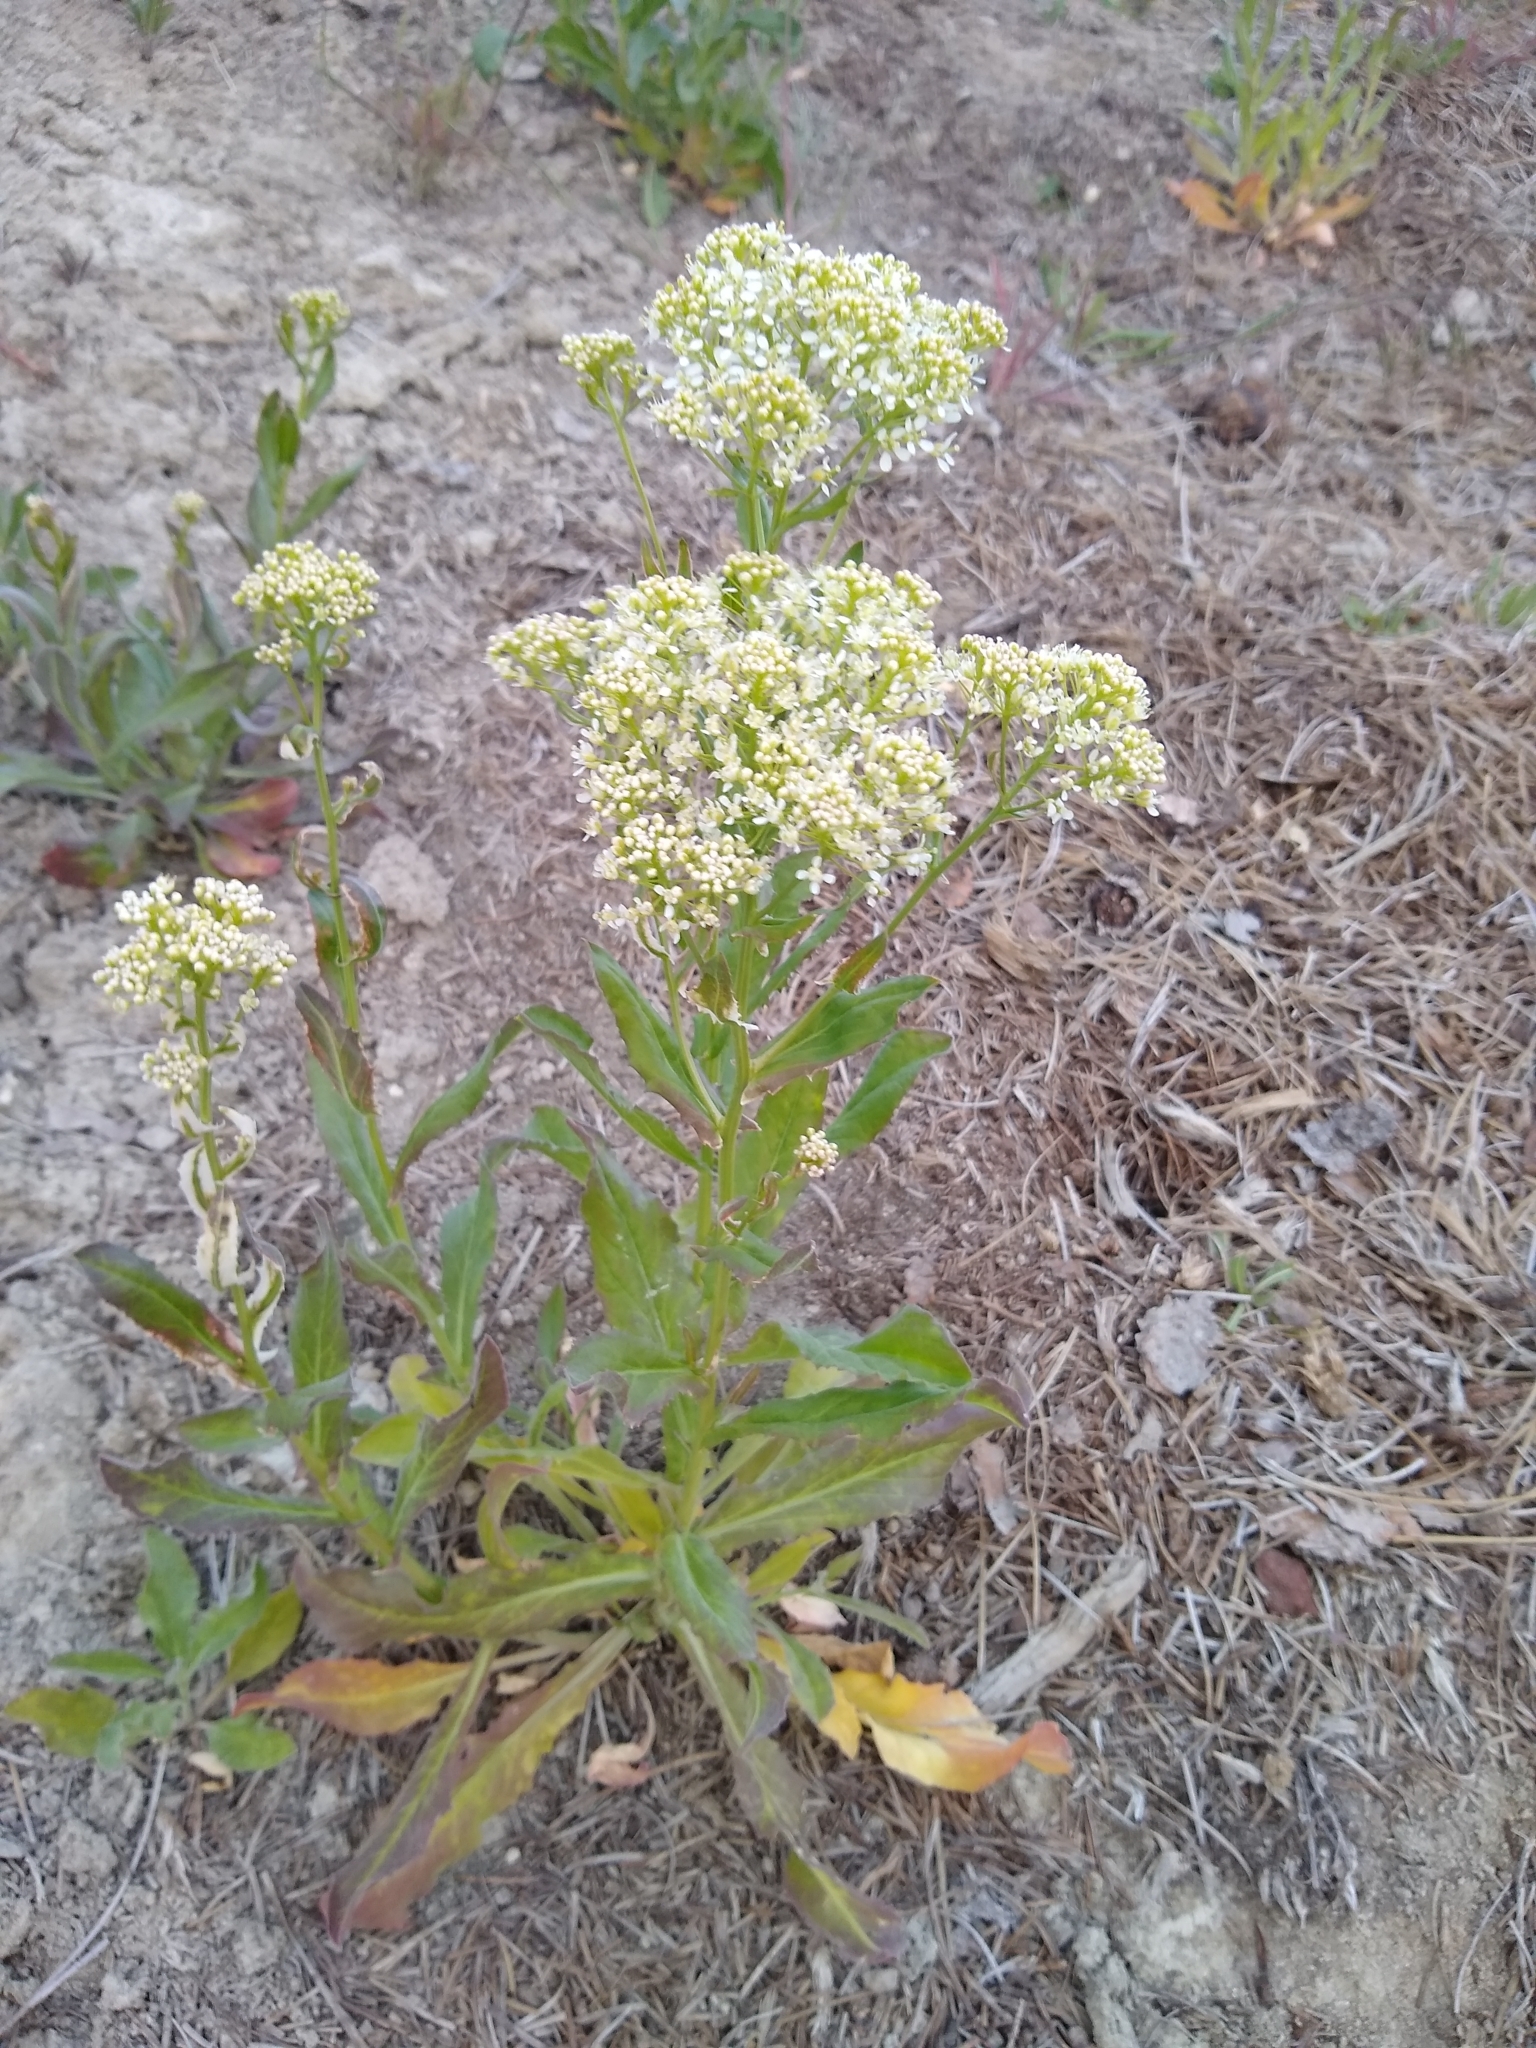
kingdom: Plantae
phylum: Tracheophyta
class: Magnoliopsida
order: Brassicales
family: Brassicaceae
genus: Lepidium
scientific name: Lepidium draba
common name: Hoary cress
